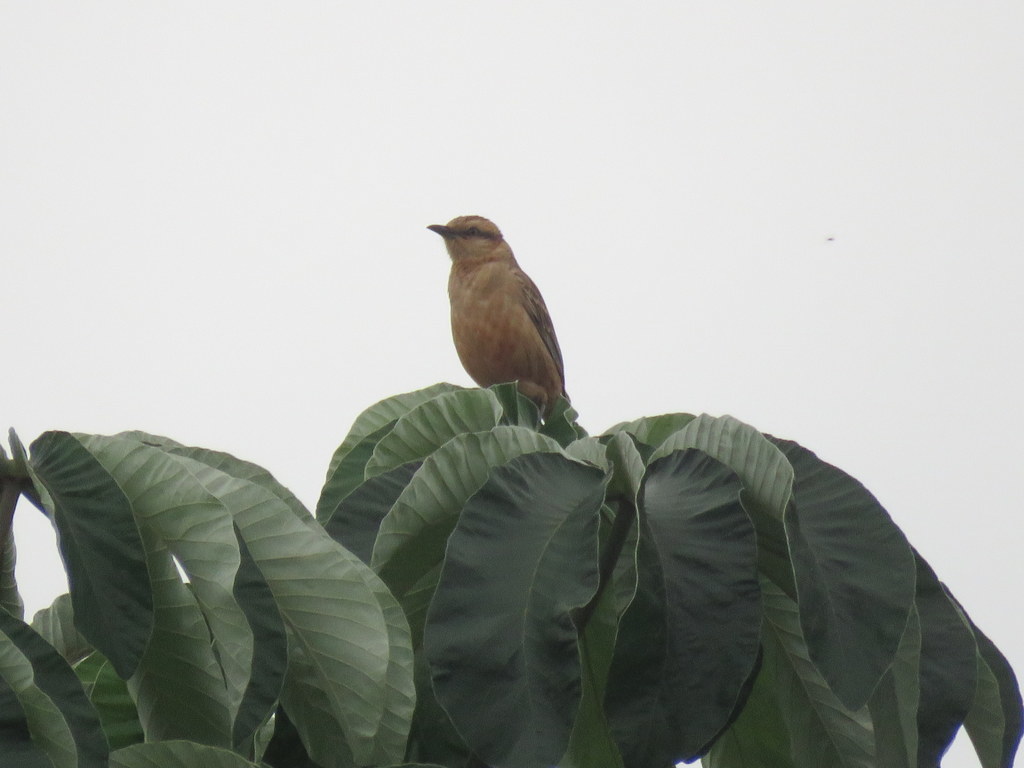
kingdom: Animalia
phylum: Chordata
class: Aves
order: Passeriformes
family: Mimidae
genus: Mimus
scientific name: Mimus saturninus
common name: Chalk-browed mockingbird
